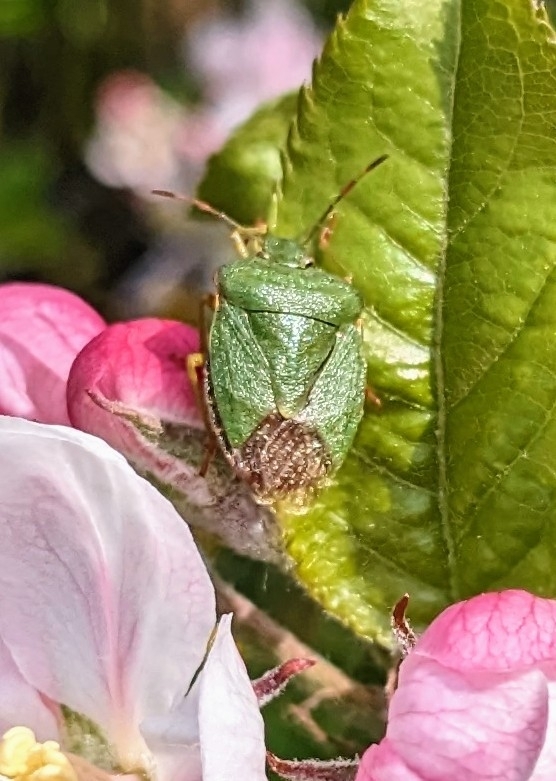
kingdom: Animalia
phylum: Arthropoda
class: Insecta
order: Hemiptera
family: Pentatomidae
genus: Palomena
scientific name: Palomena prasina
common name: Green shieldbug
